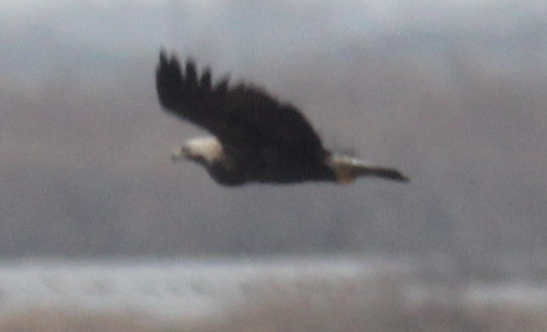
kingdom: Animalia
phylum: Chordata
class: Aves
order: Accipitriformes
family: Accipitridae
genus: Aquila
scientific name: Aquila heliaca
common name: Eastern imperial eagle
